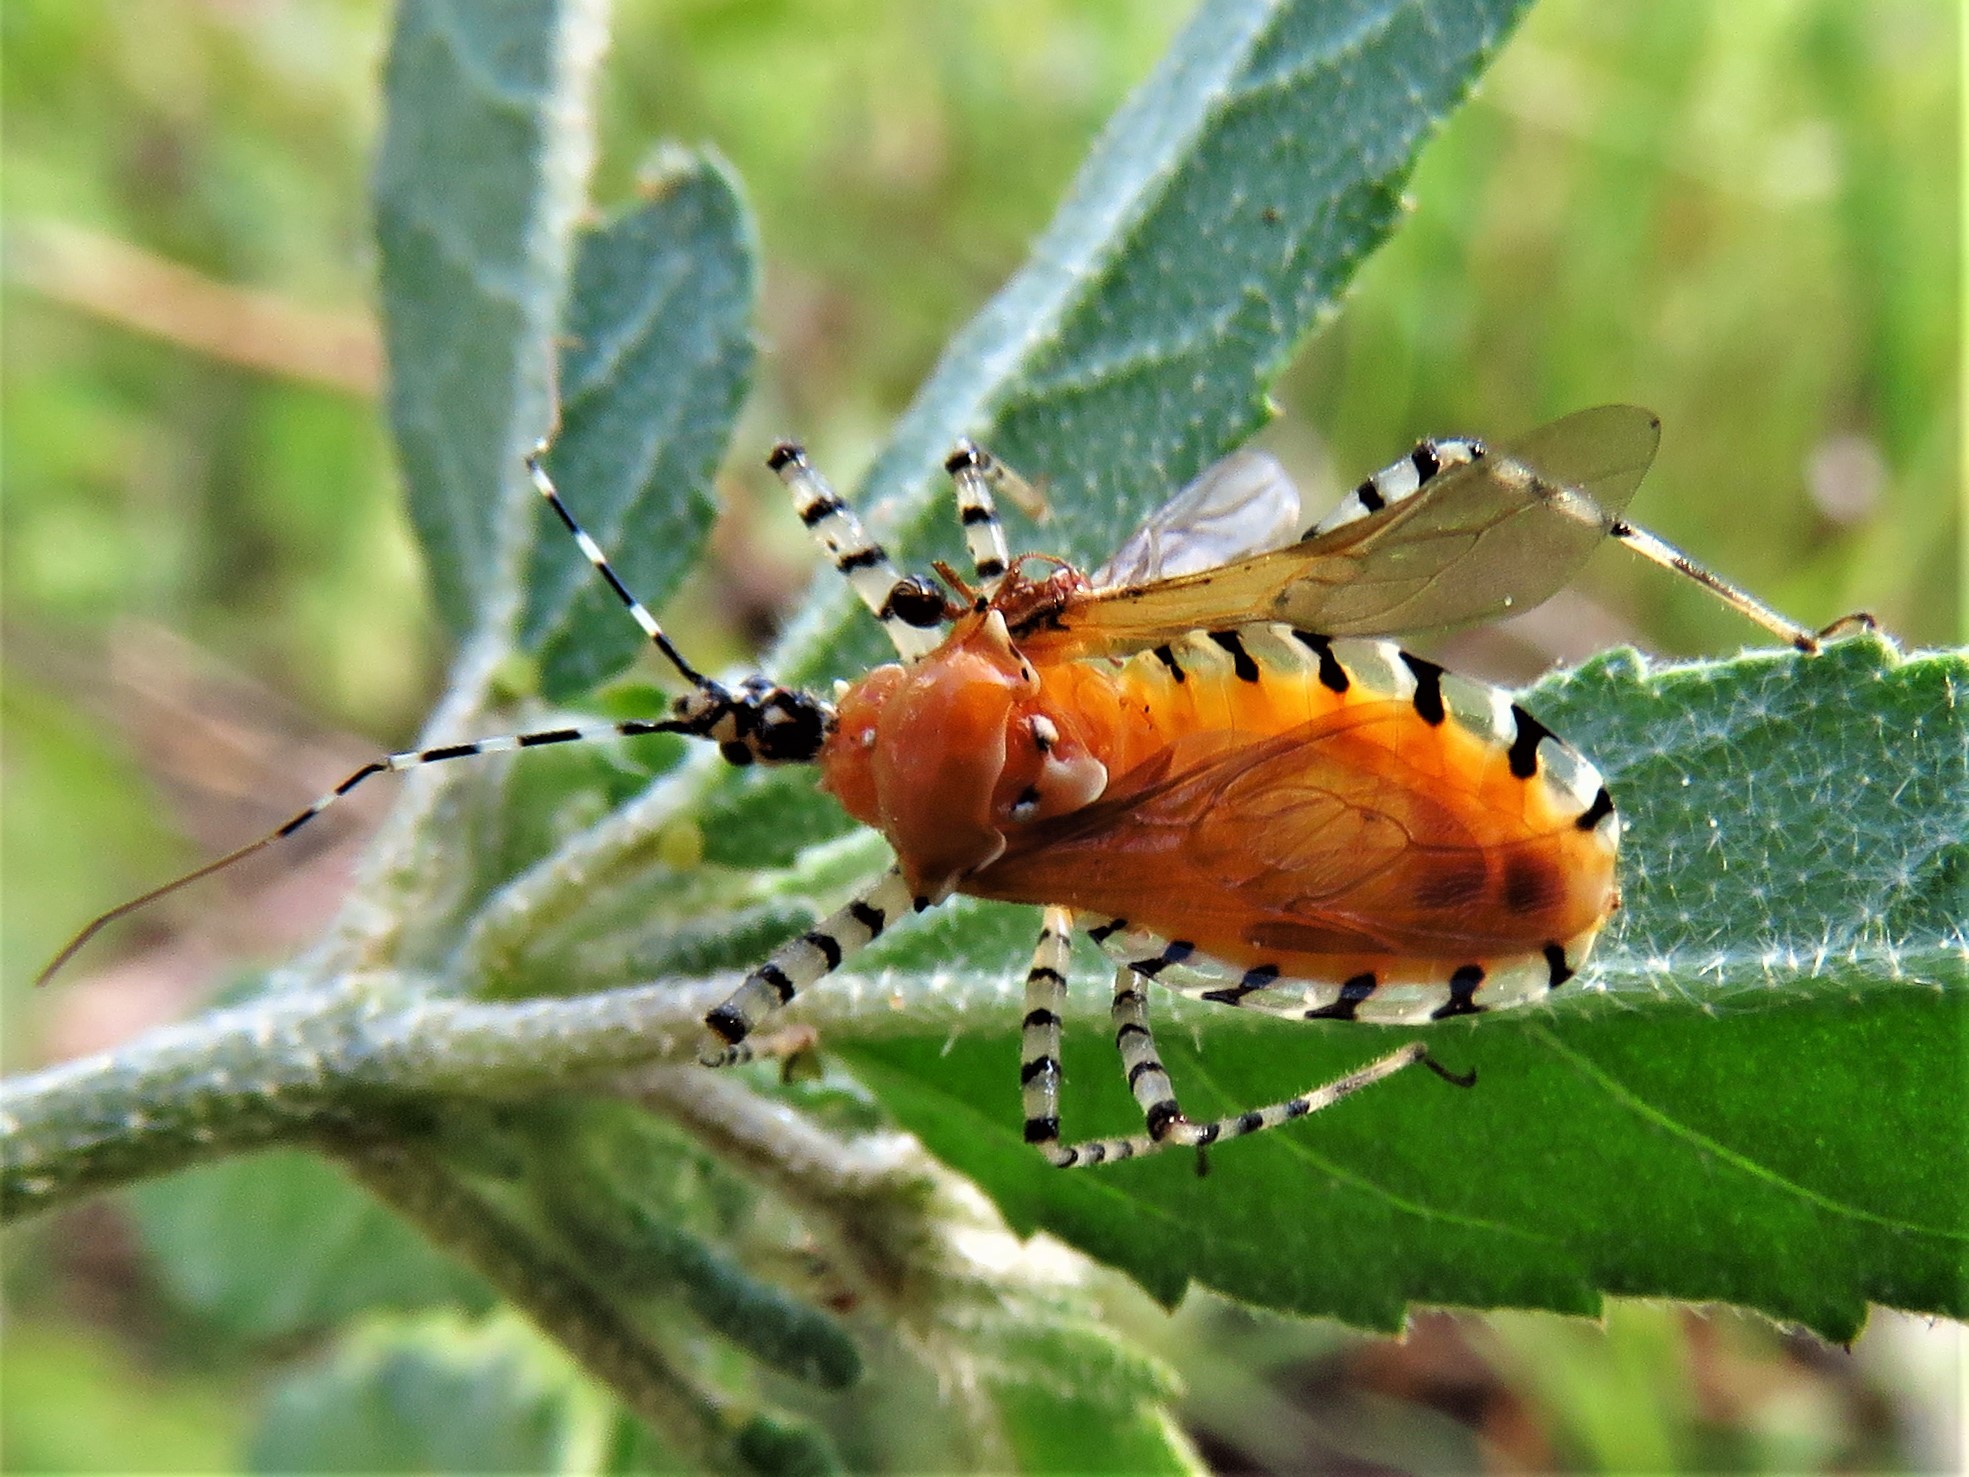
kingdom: Animalia
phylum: Arthropoda
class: Insecta
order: Hemiptera
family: Reduviidae
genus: Pselliopus
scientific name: Pselliopus cinctus
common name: Ringed assassin bug
